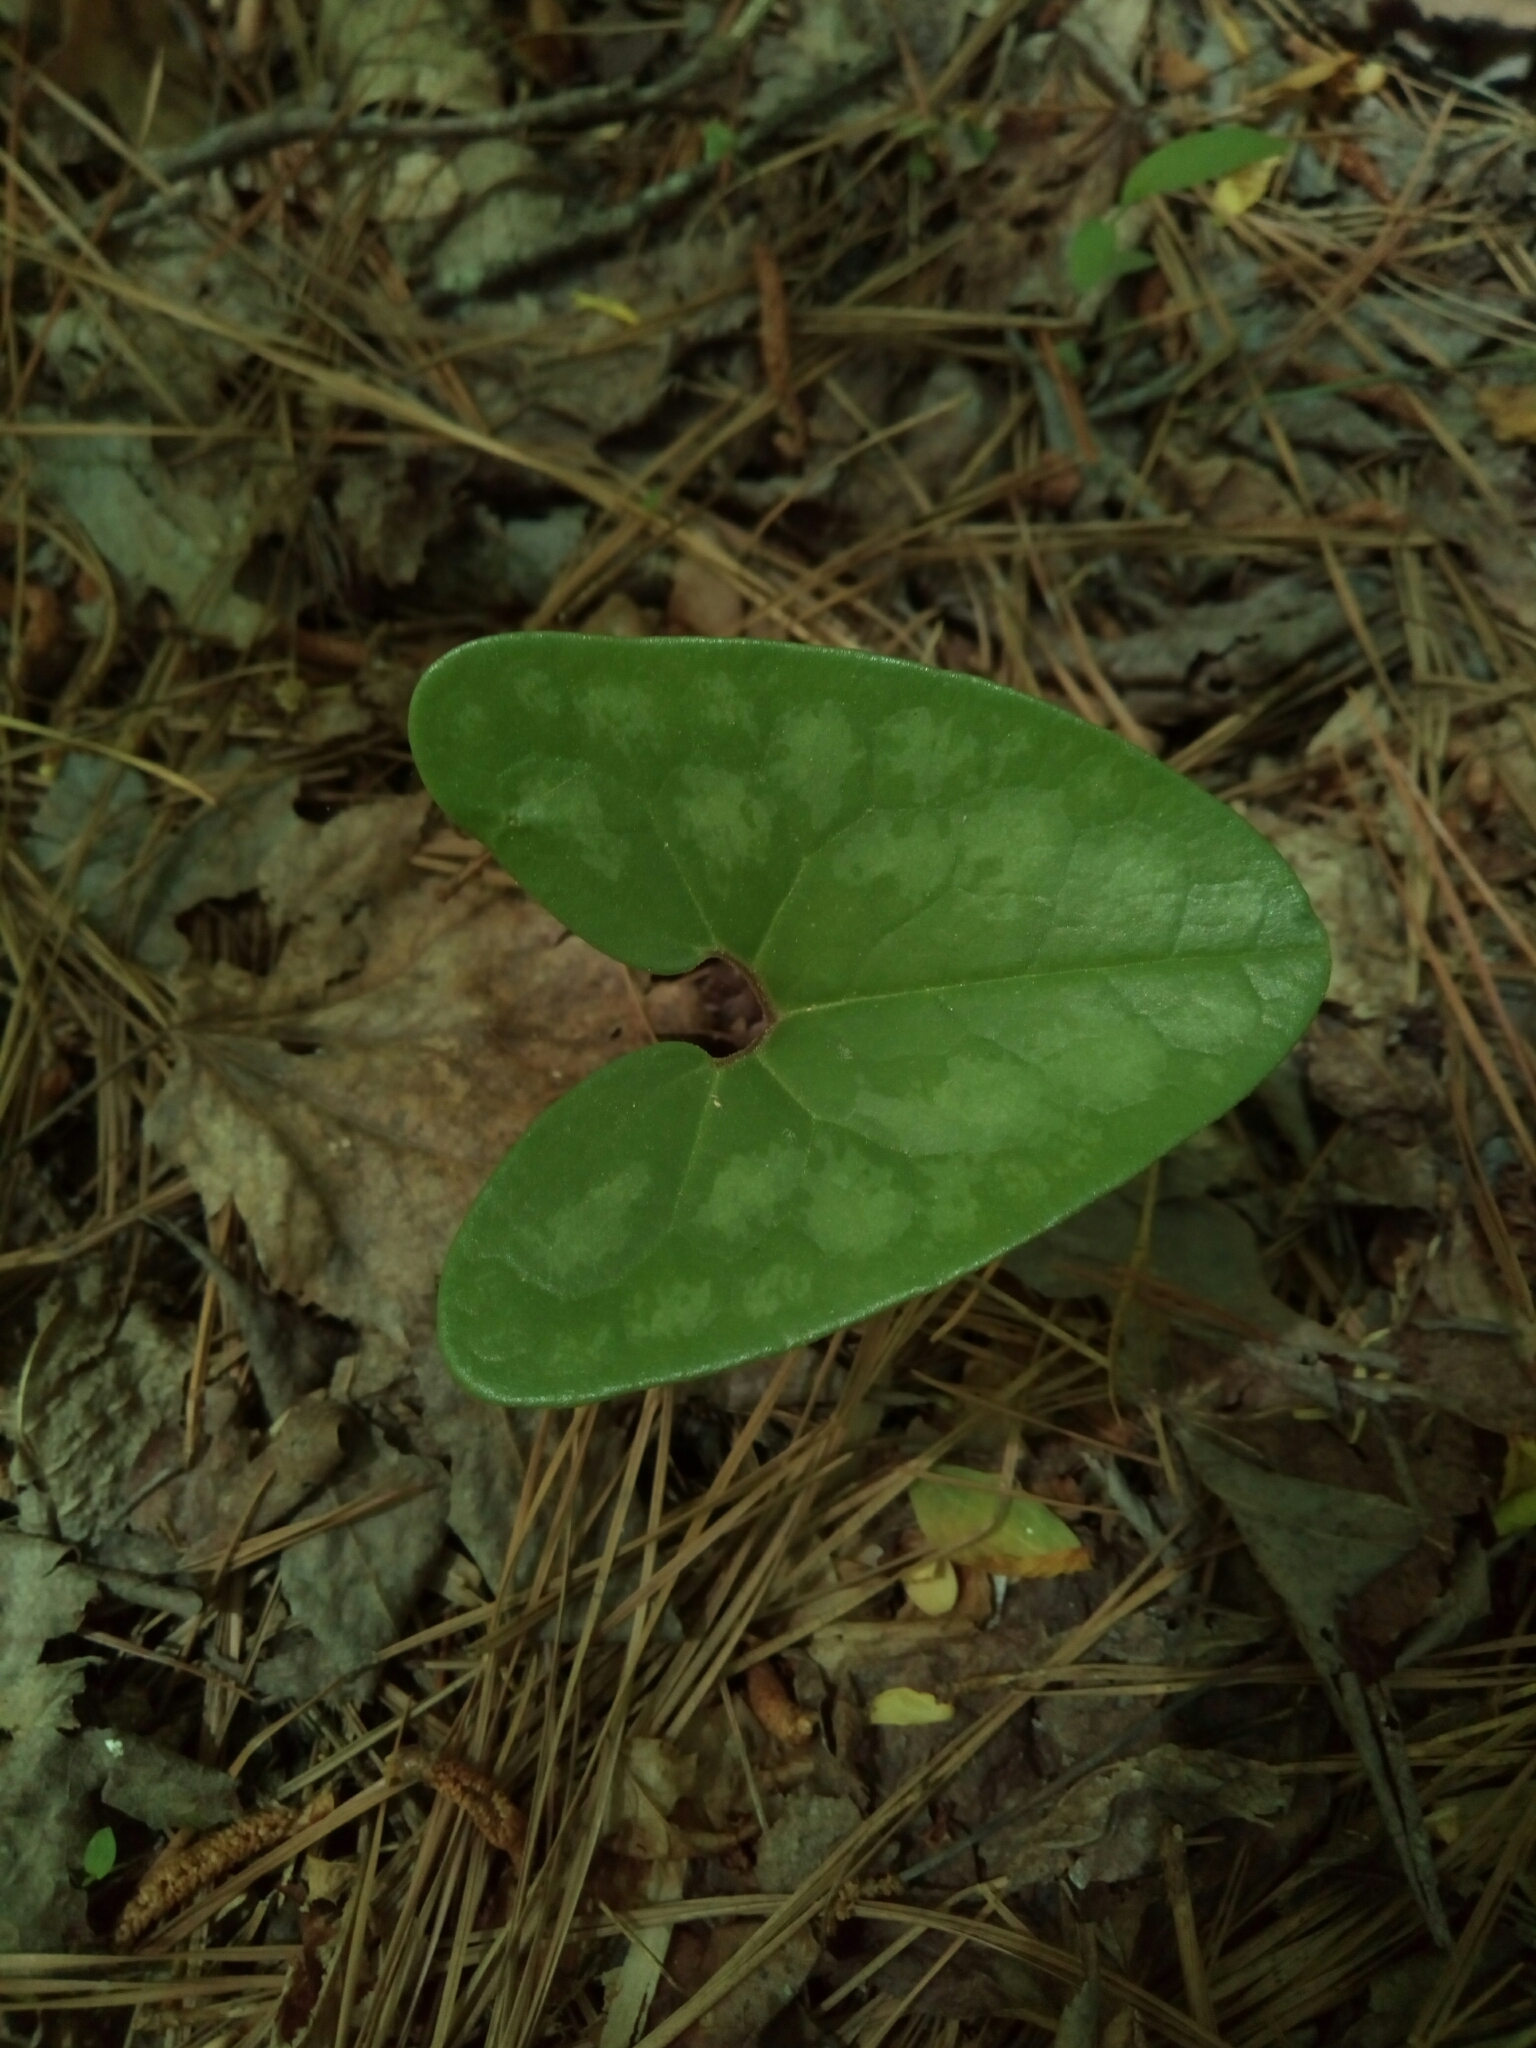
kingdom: Plantae
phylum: Tracheophyta
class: Magnoliopsida
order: Piperales
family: Aristolochiaceae
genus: Hexastylis
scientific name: Hexastylis arifolia
